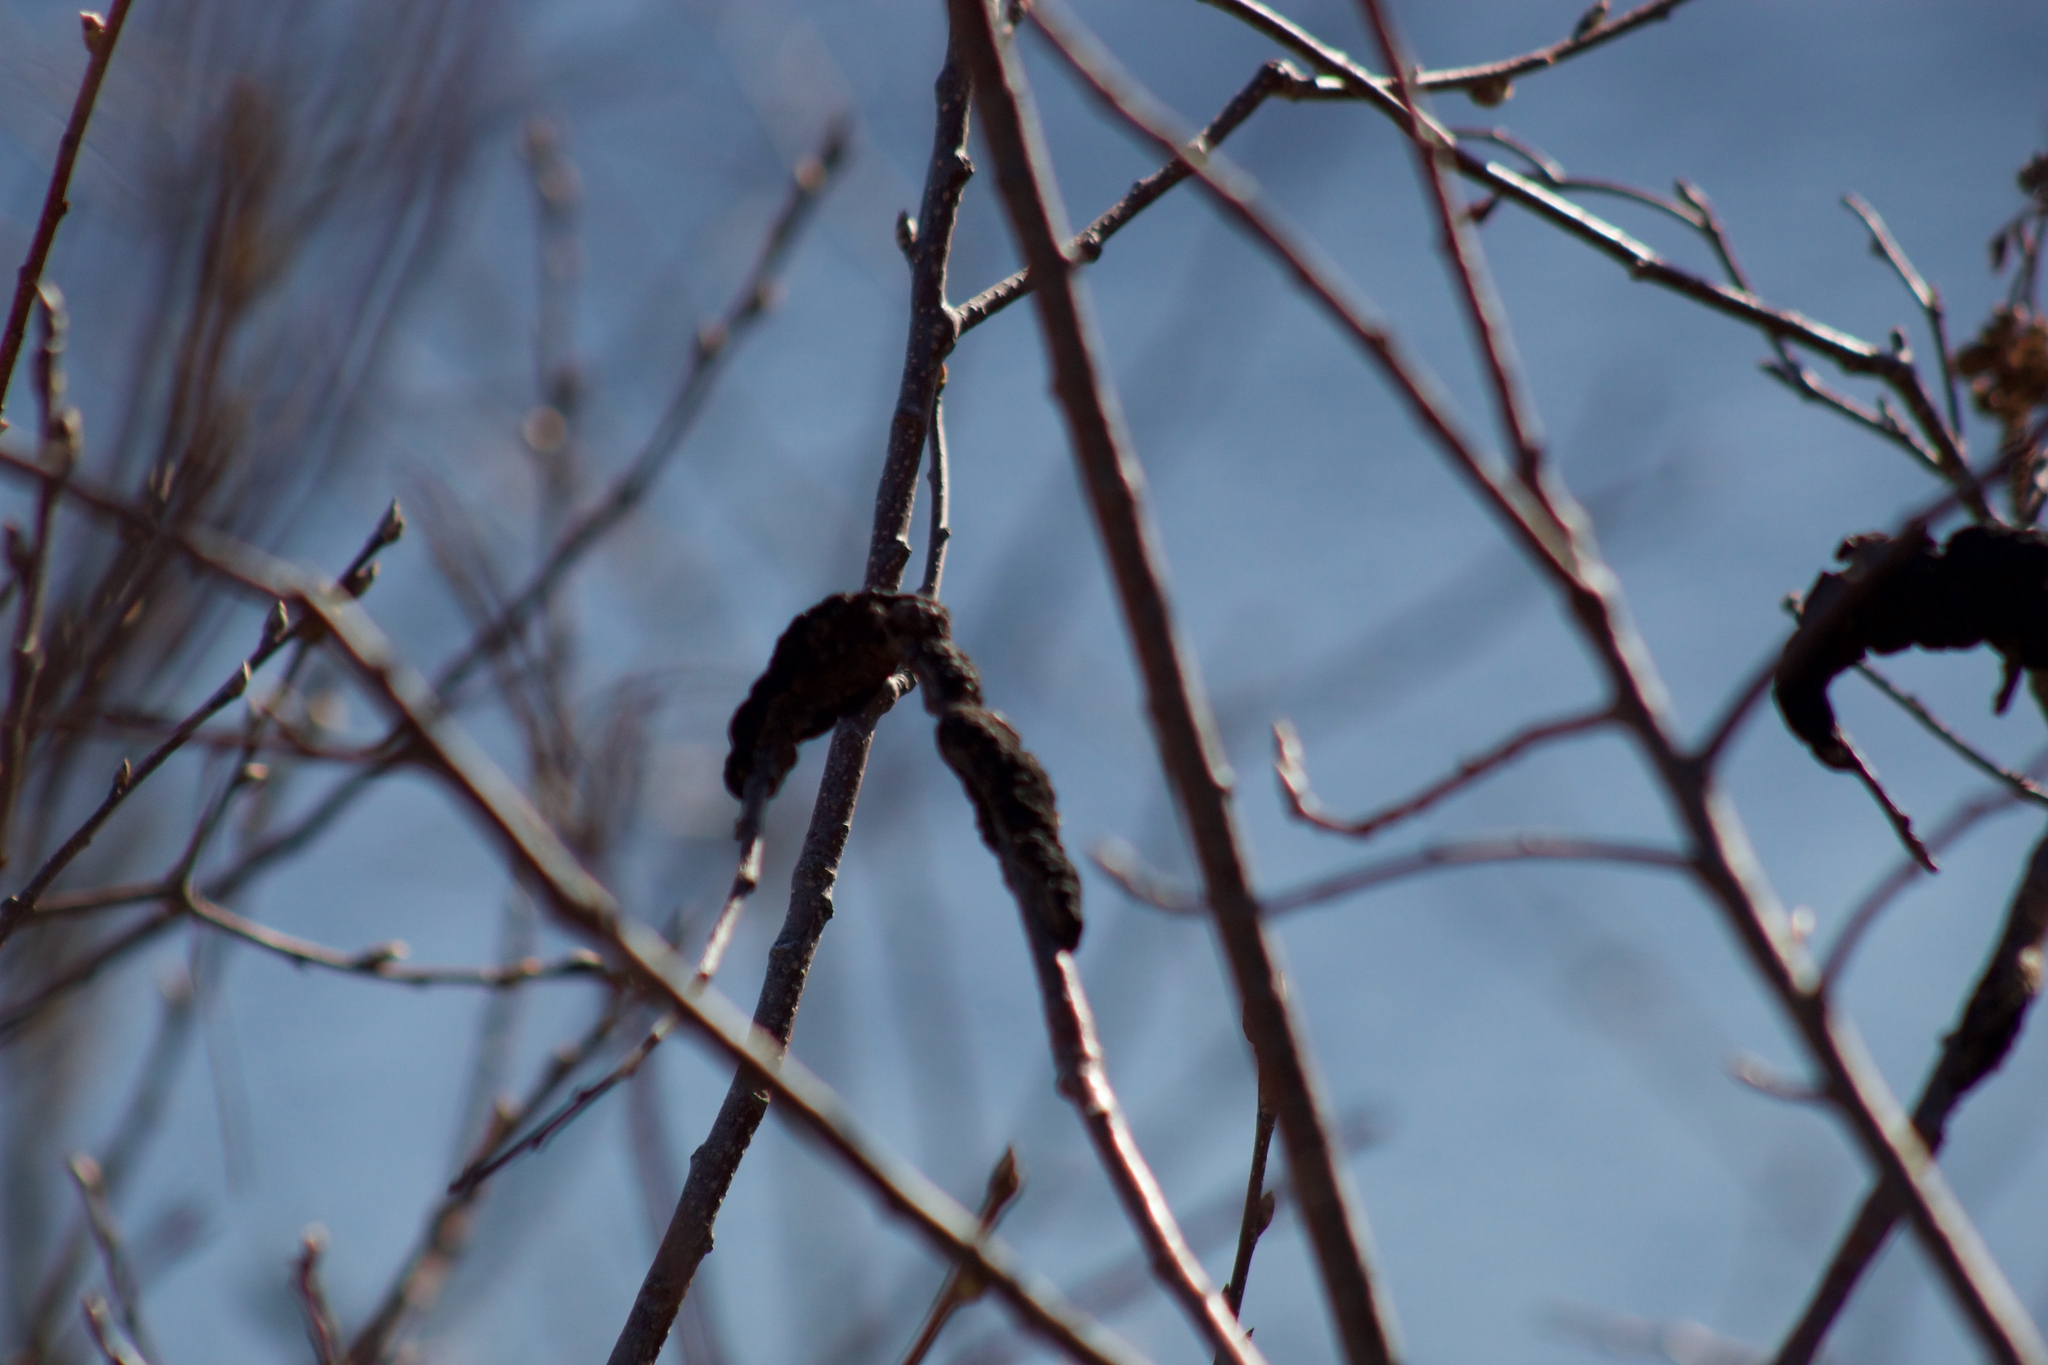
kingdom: Fungi
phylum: Ascomycota
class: Dothideomycetes
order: Venturiales
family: Venturiaceae
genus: Apiosporina
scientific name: Apiosporina morbosa
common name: Black knot
